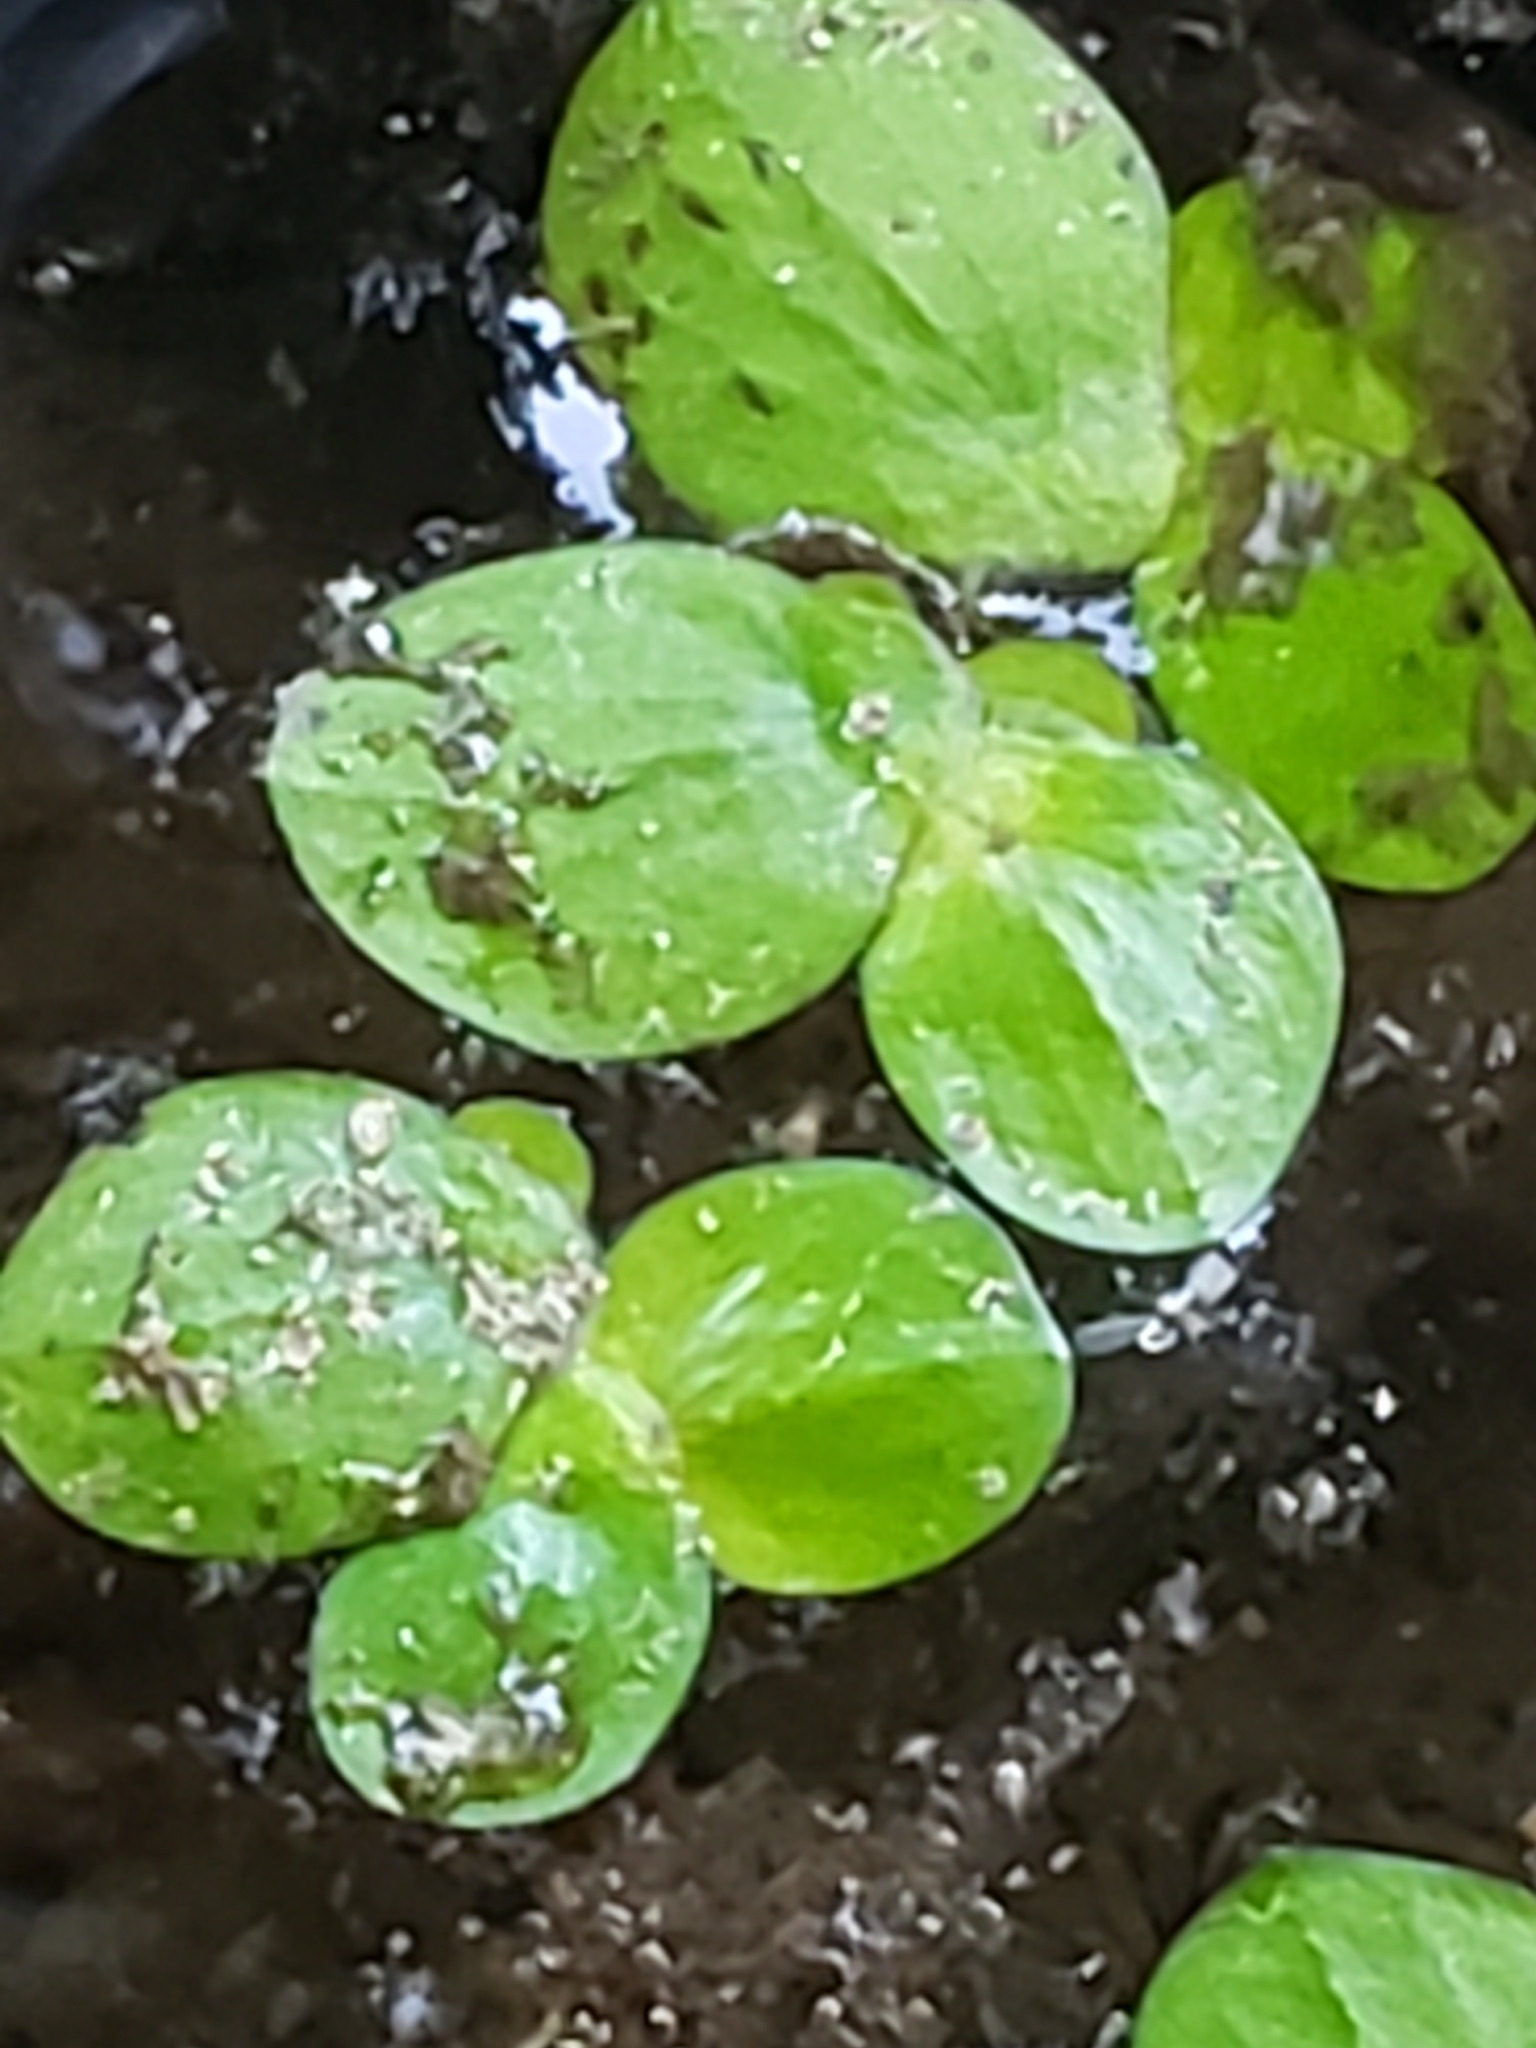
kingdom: Plantae
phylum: Tracheophyta
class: Liliopsida
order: Alismatales
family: Araceae
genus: Spirodela
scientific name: Spirodela polyrhiza
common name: Great duckweed
